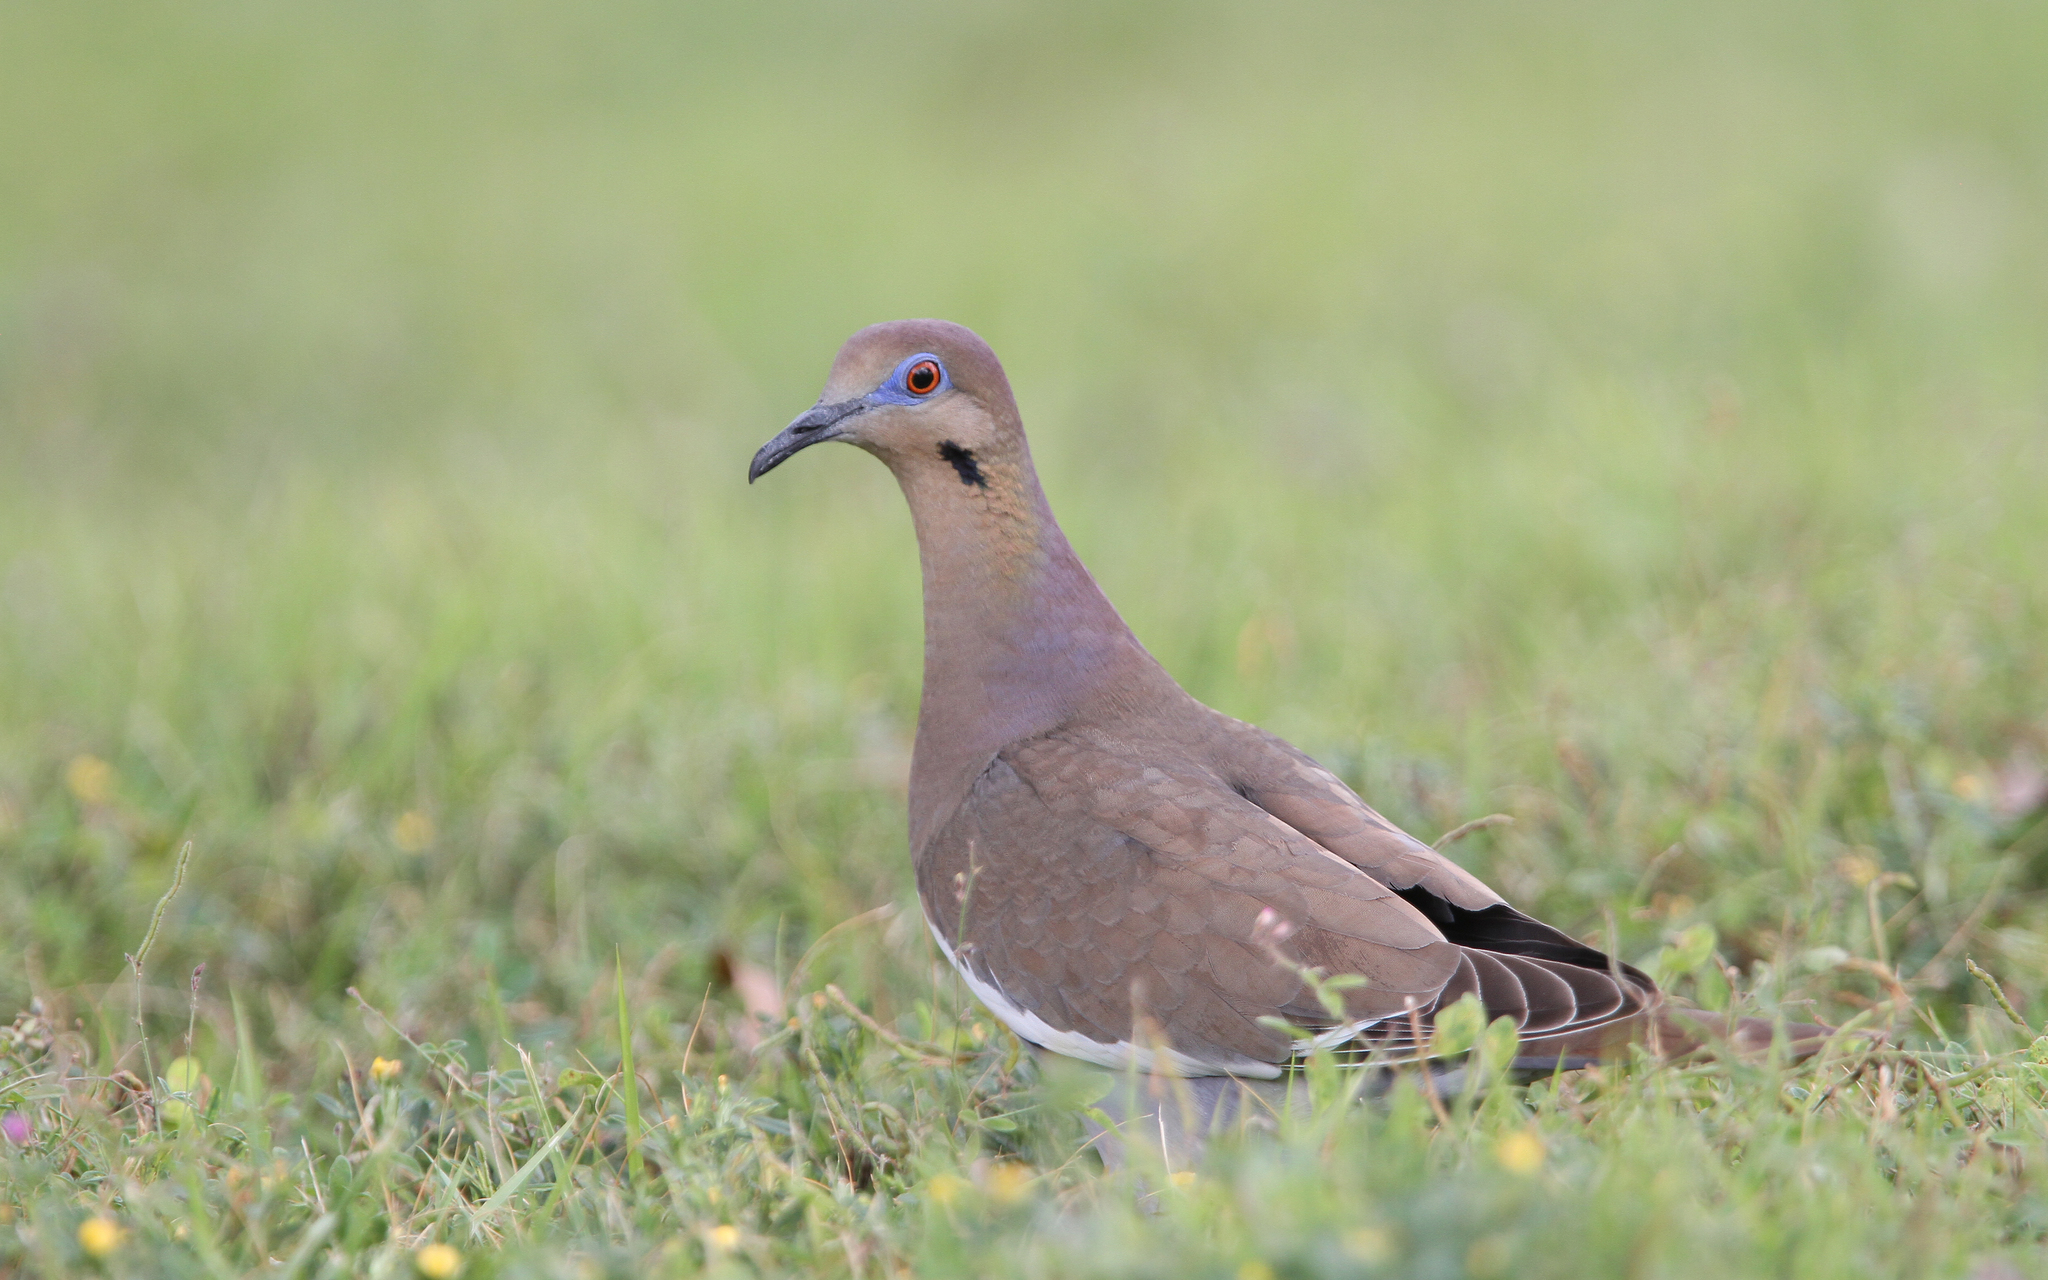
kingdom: Animalia
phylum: Chordata
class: Aves
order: Columbiformes
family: Columbidae
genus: Zenaida
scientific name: Zenaida asiatica
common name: White-winged dove
